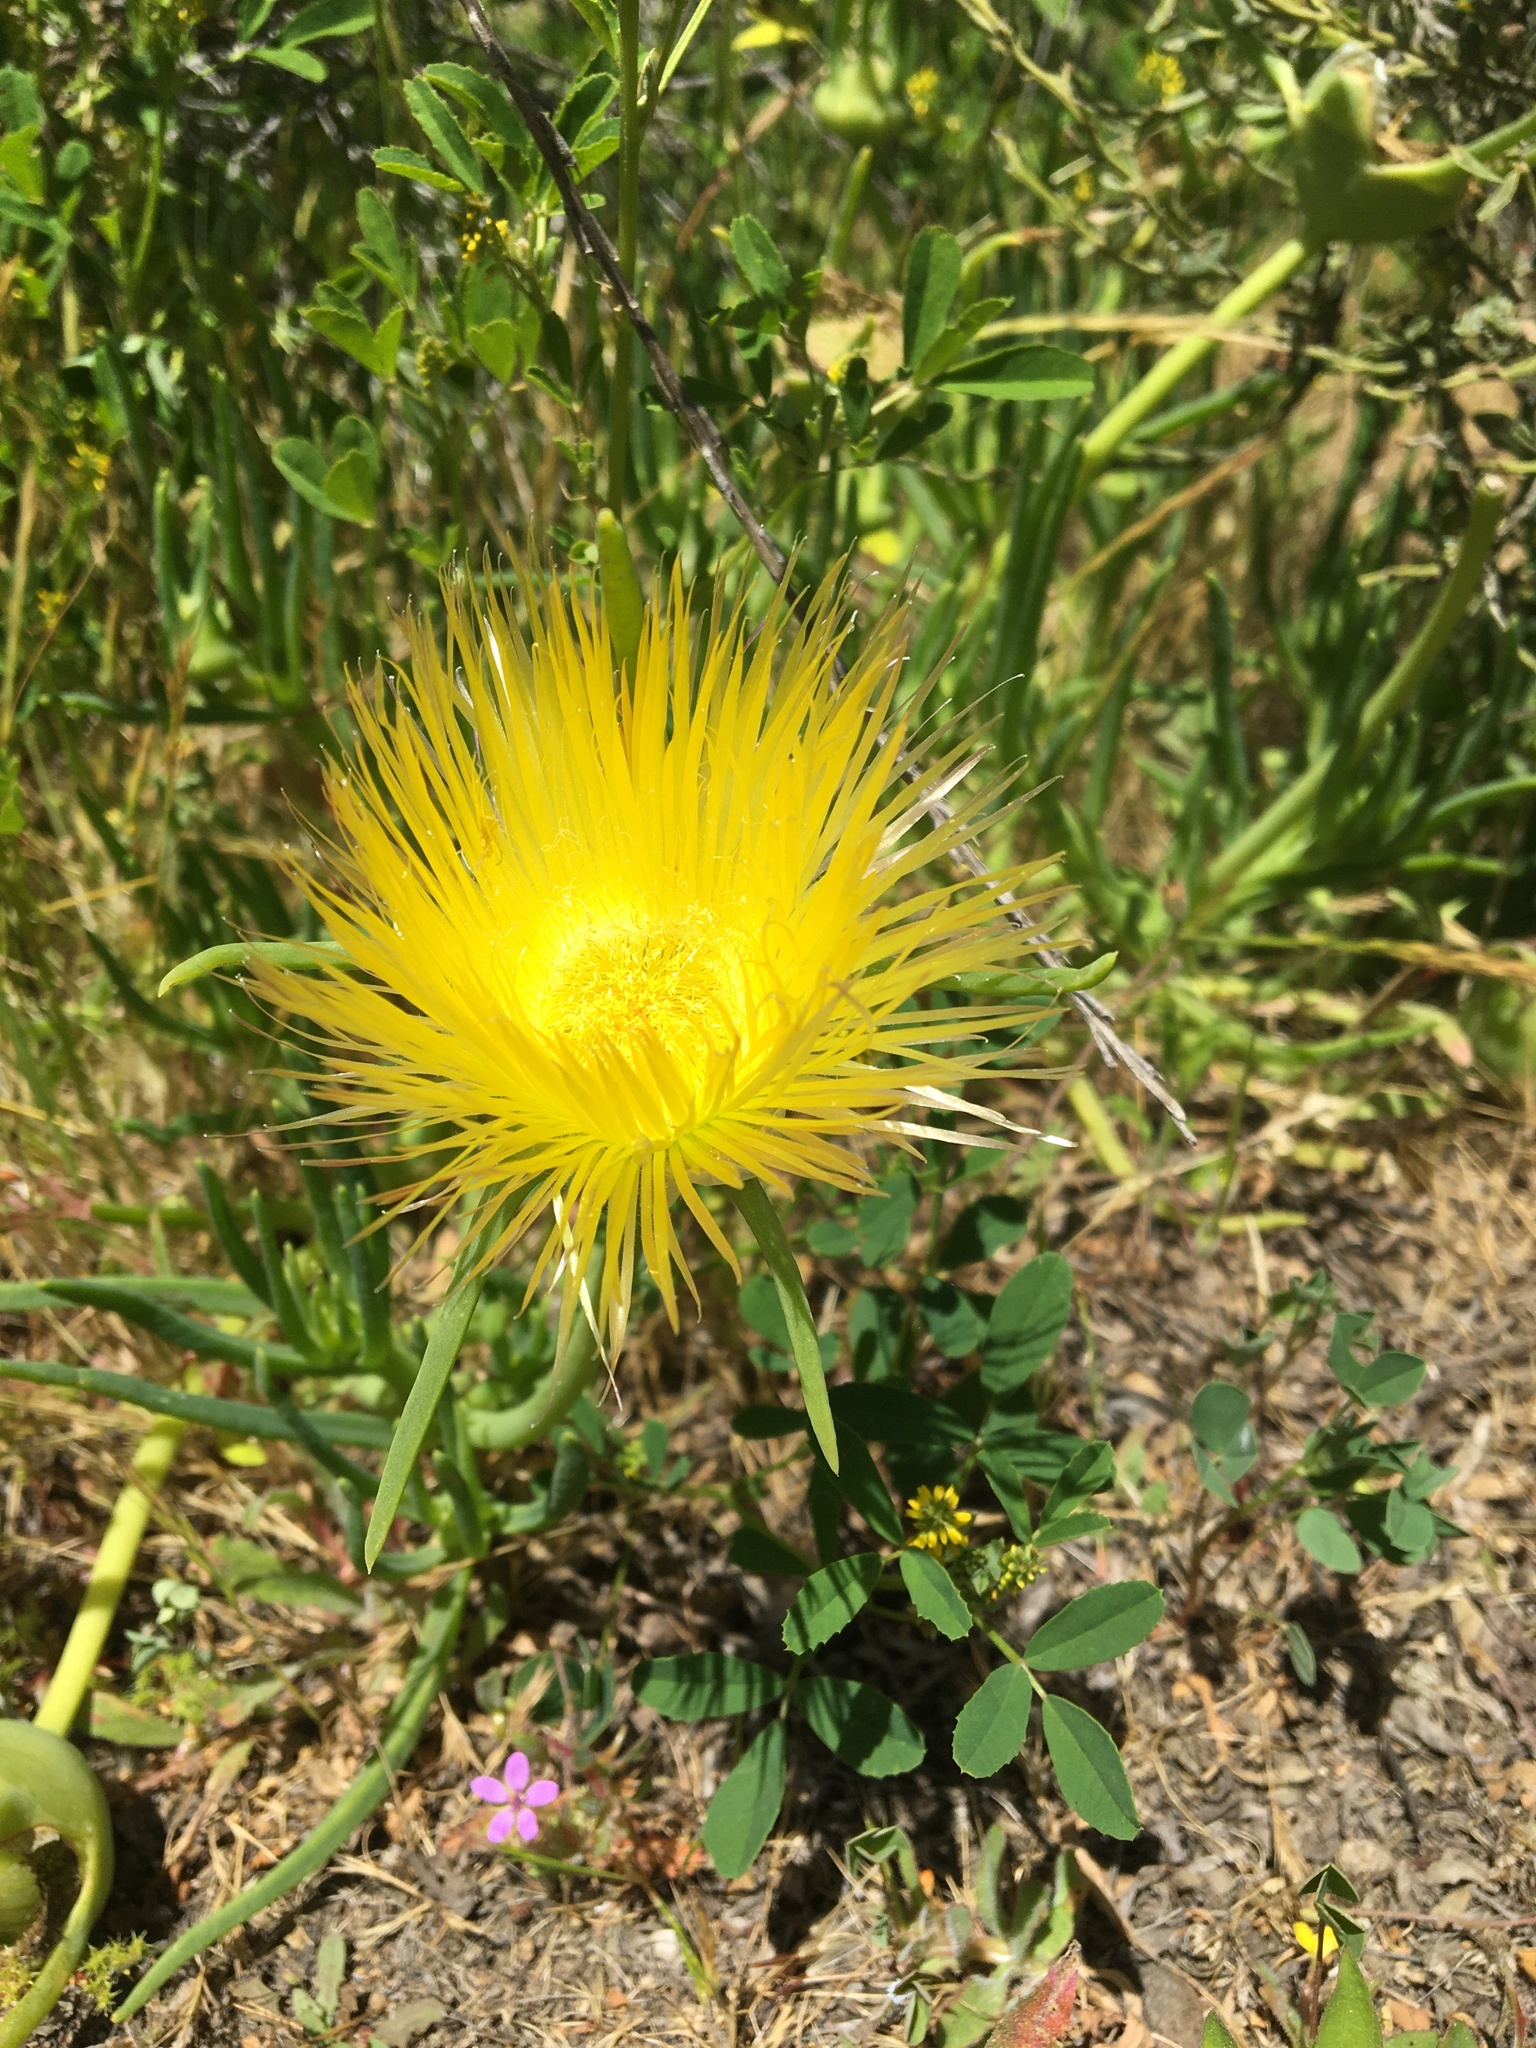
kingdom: Plantae
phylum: Tracheophyta
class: Magnoliopsida
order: Caryophyllales
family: Aizoaceae
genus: Conicosia
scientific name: Conicosia pugioniformis
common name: Narrow-leaved iceplant
